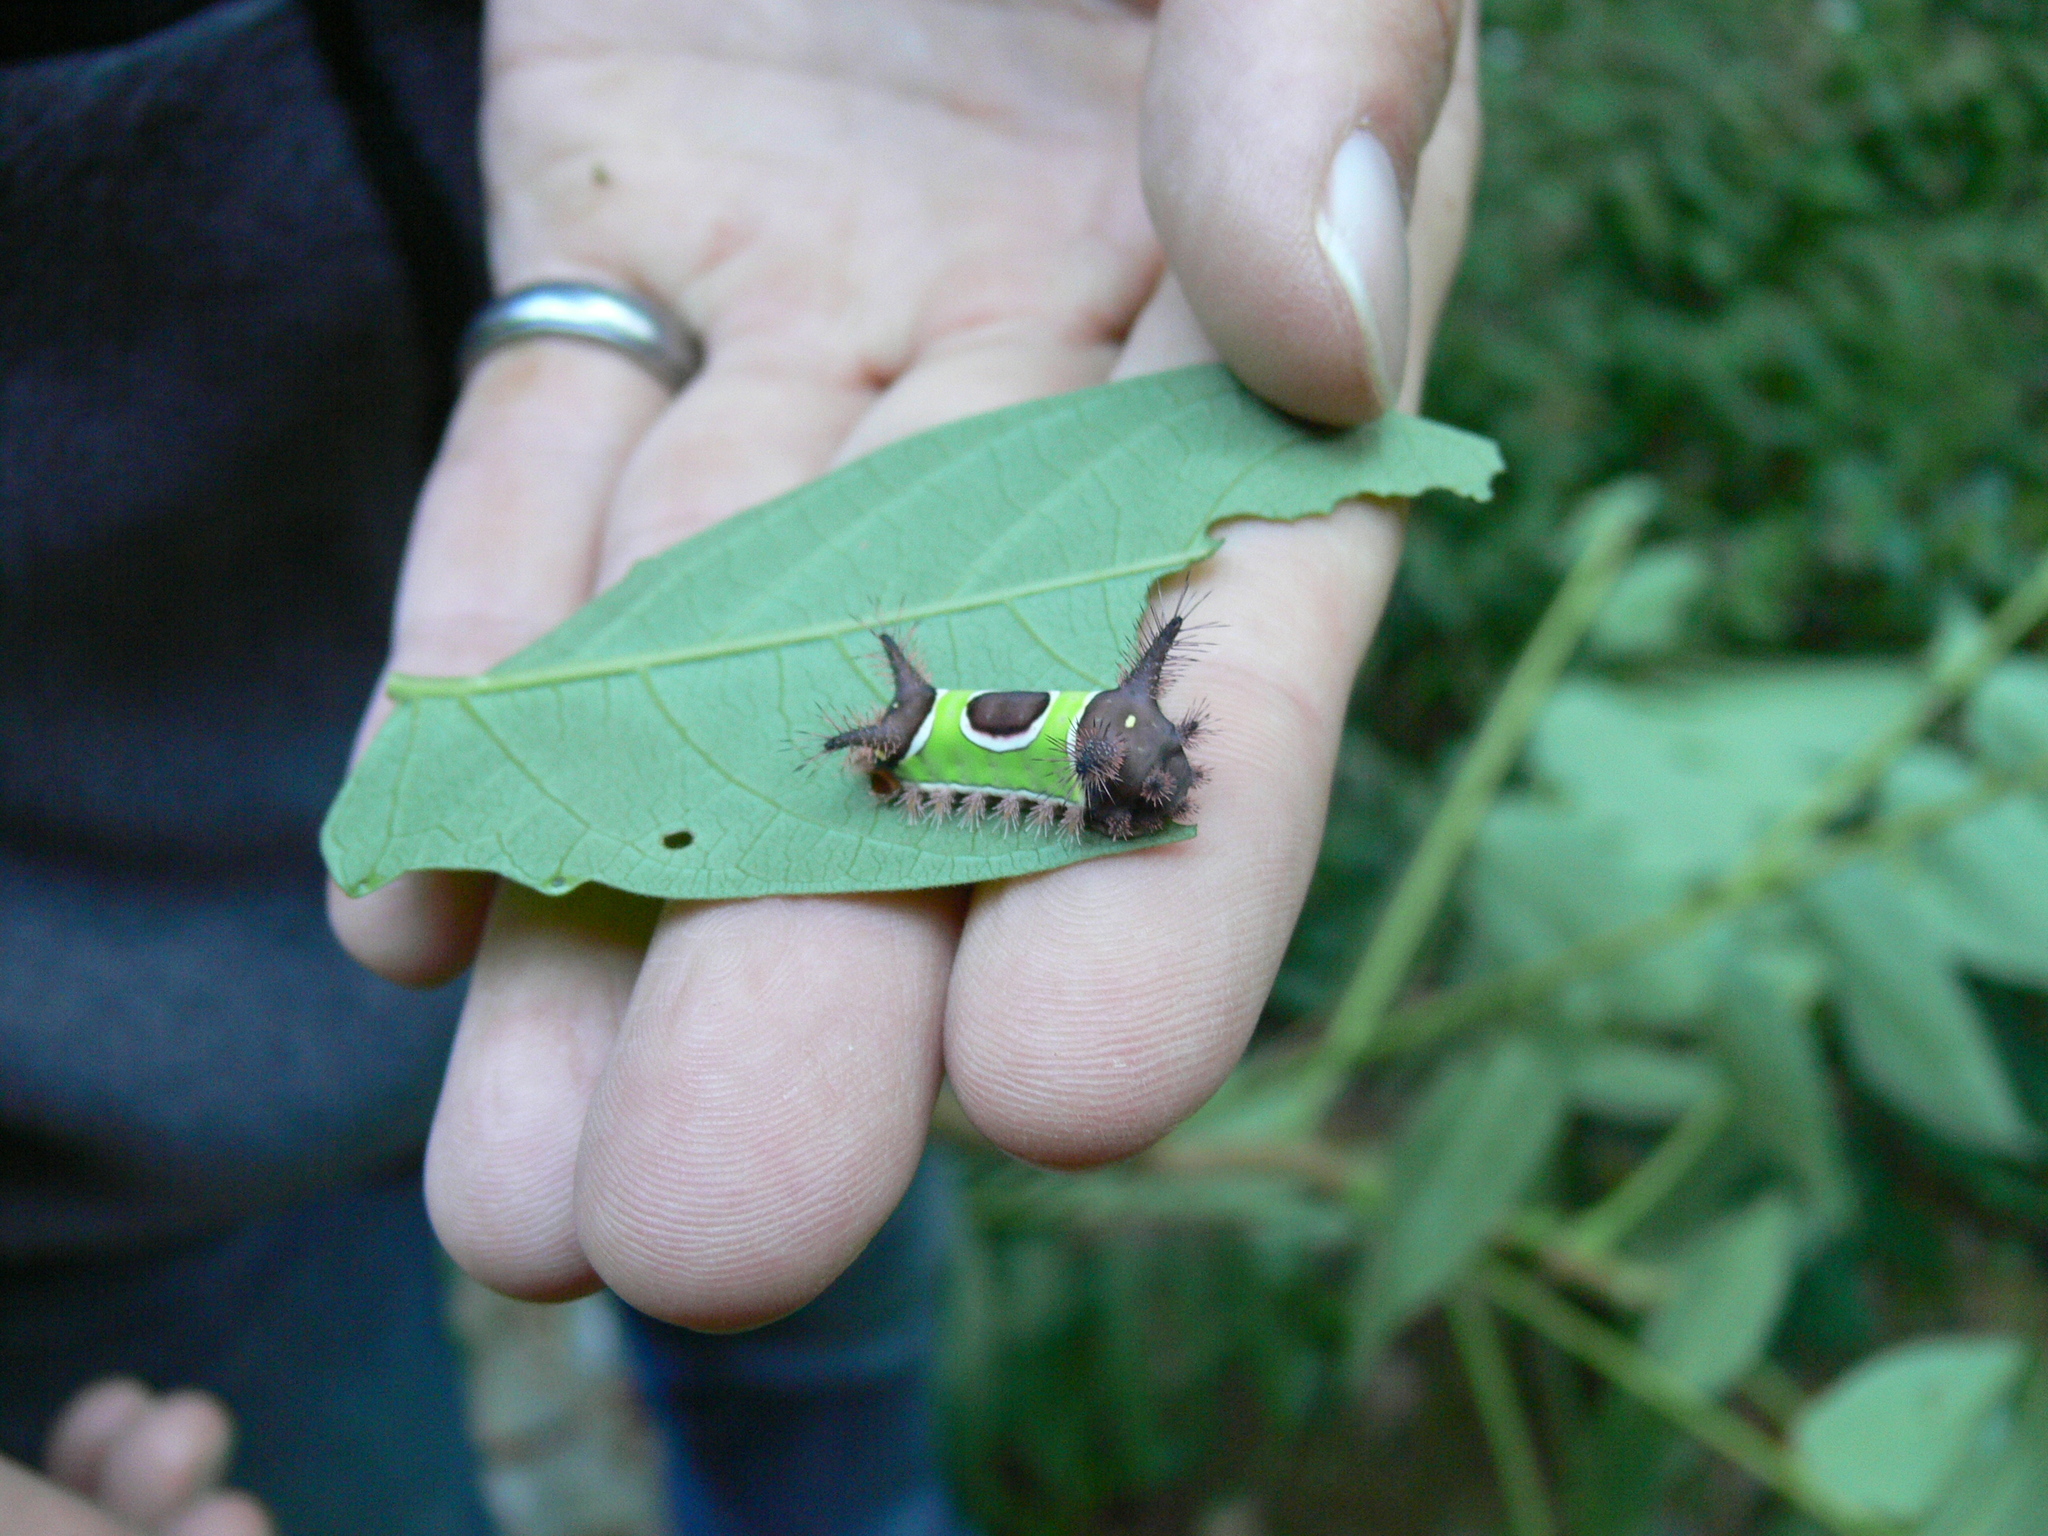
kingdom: Animalia
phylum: Arthropoda
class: Insecta
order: Lepidoptera
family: Limacodidae
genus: Acharia
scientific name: Acharia stimulea
